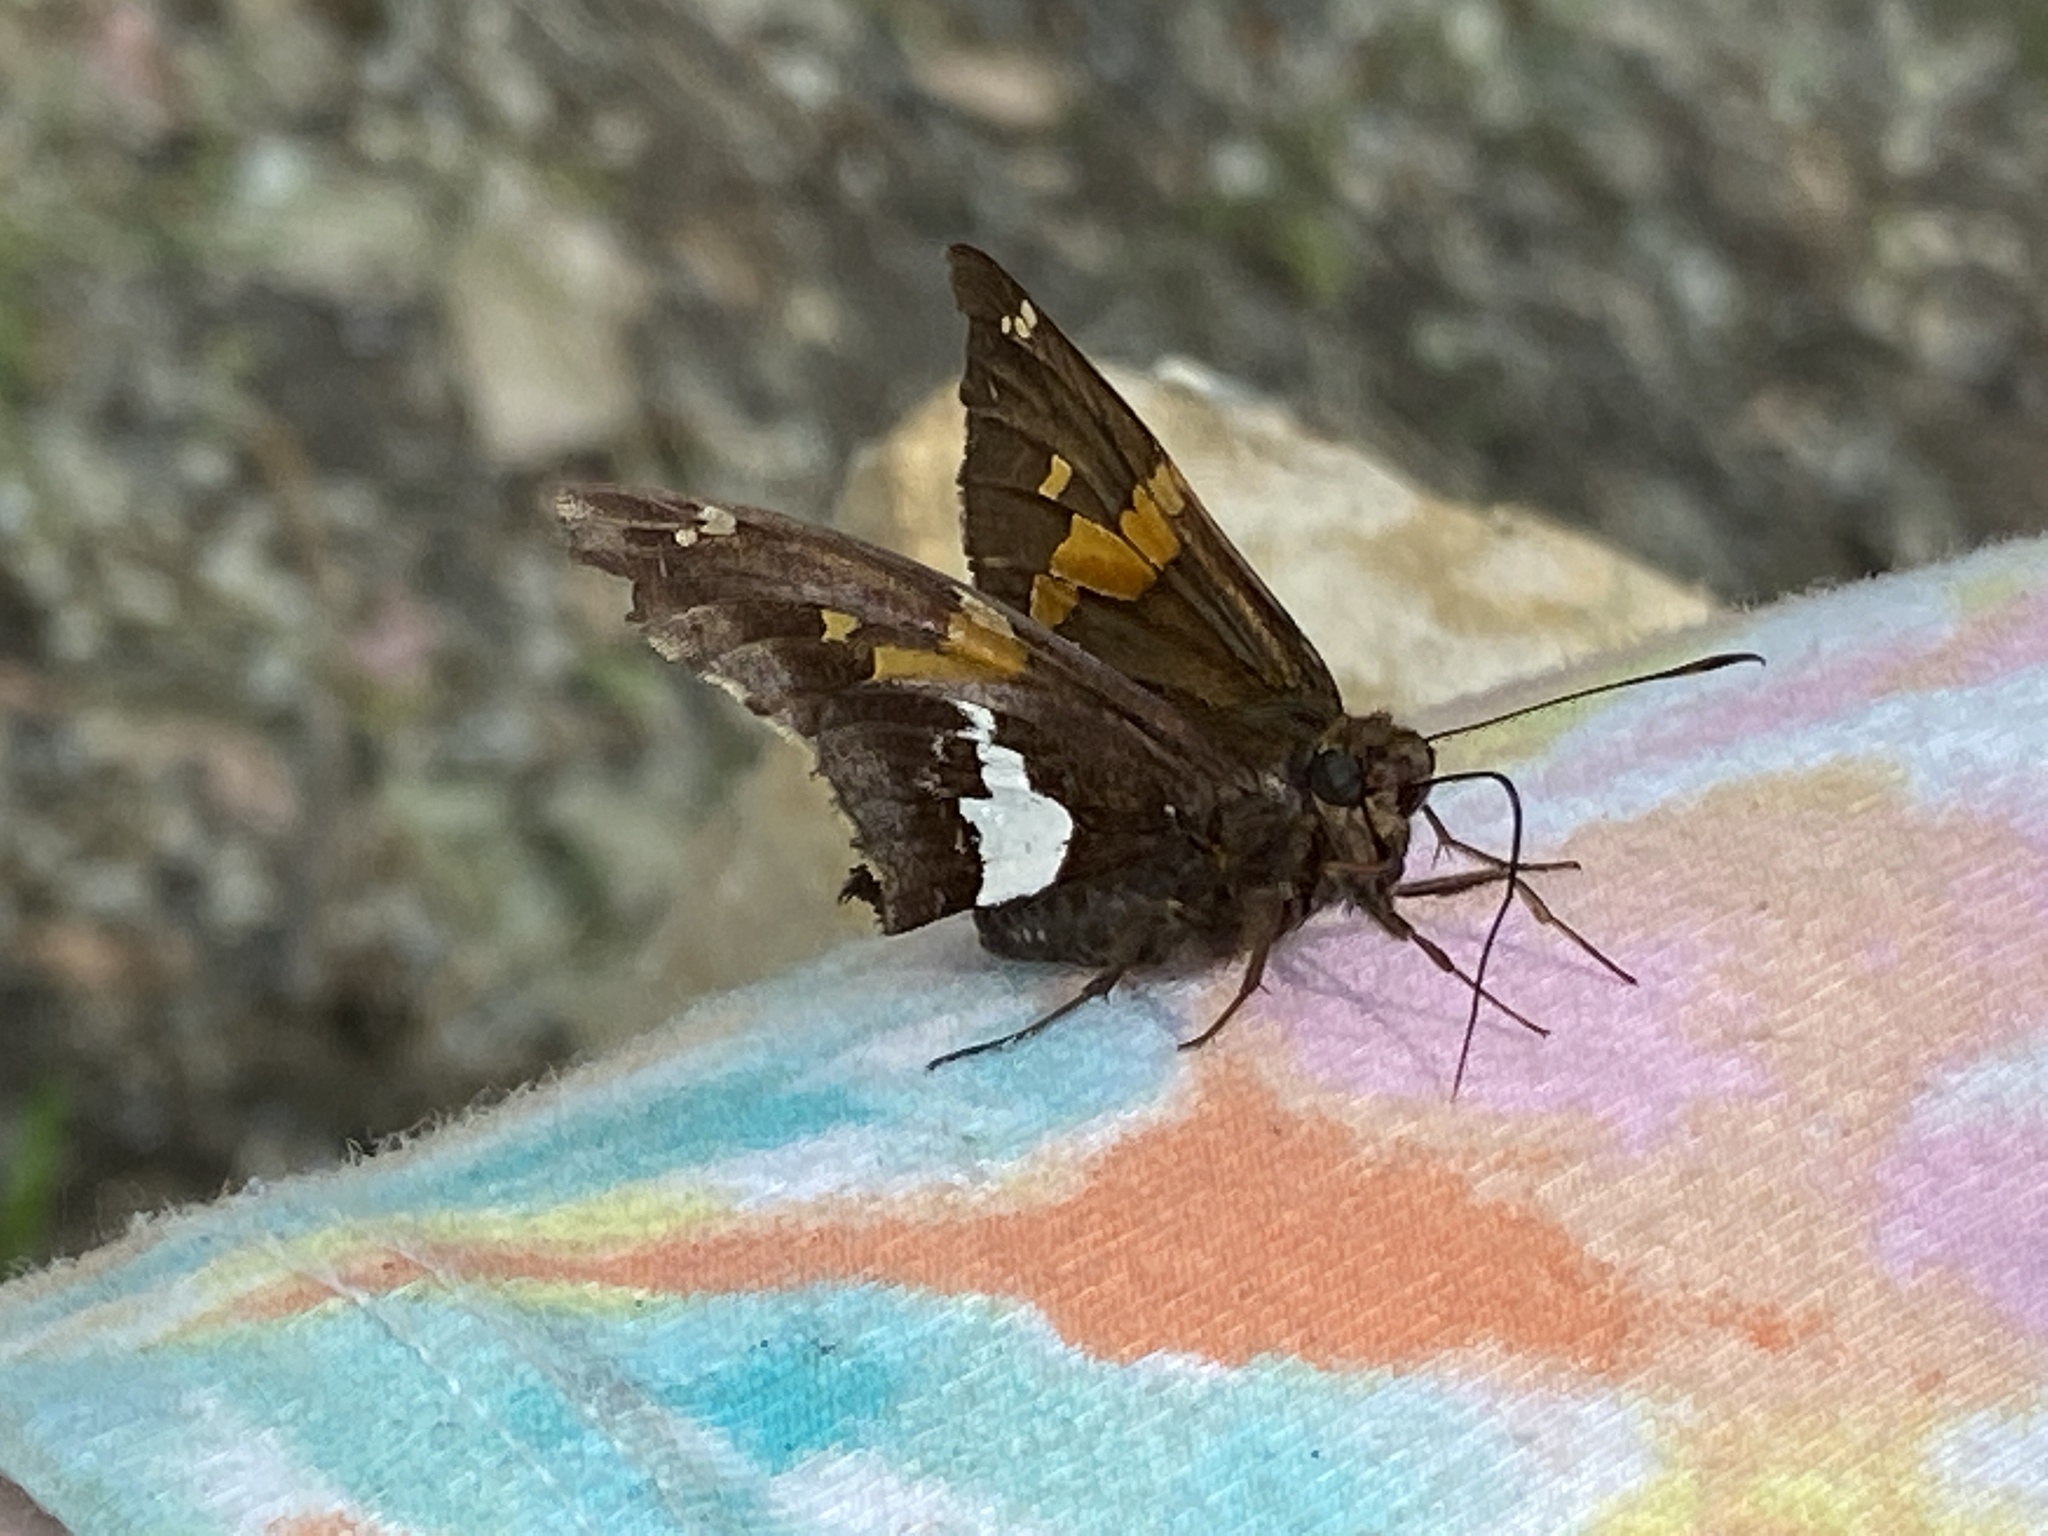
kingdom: Animalia
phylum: Arthropoda
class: Insecta
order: Lepidoptera
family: Hesperiidae
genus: Epargyreus
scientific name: Epargyreus clarus
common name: Silver-spotted skipper
